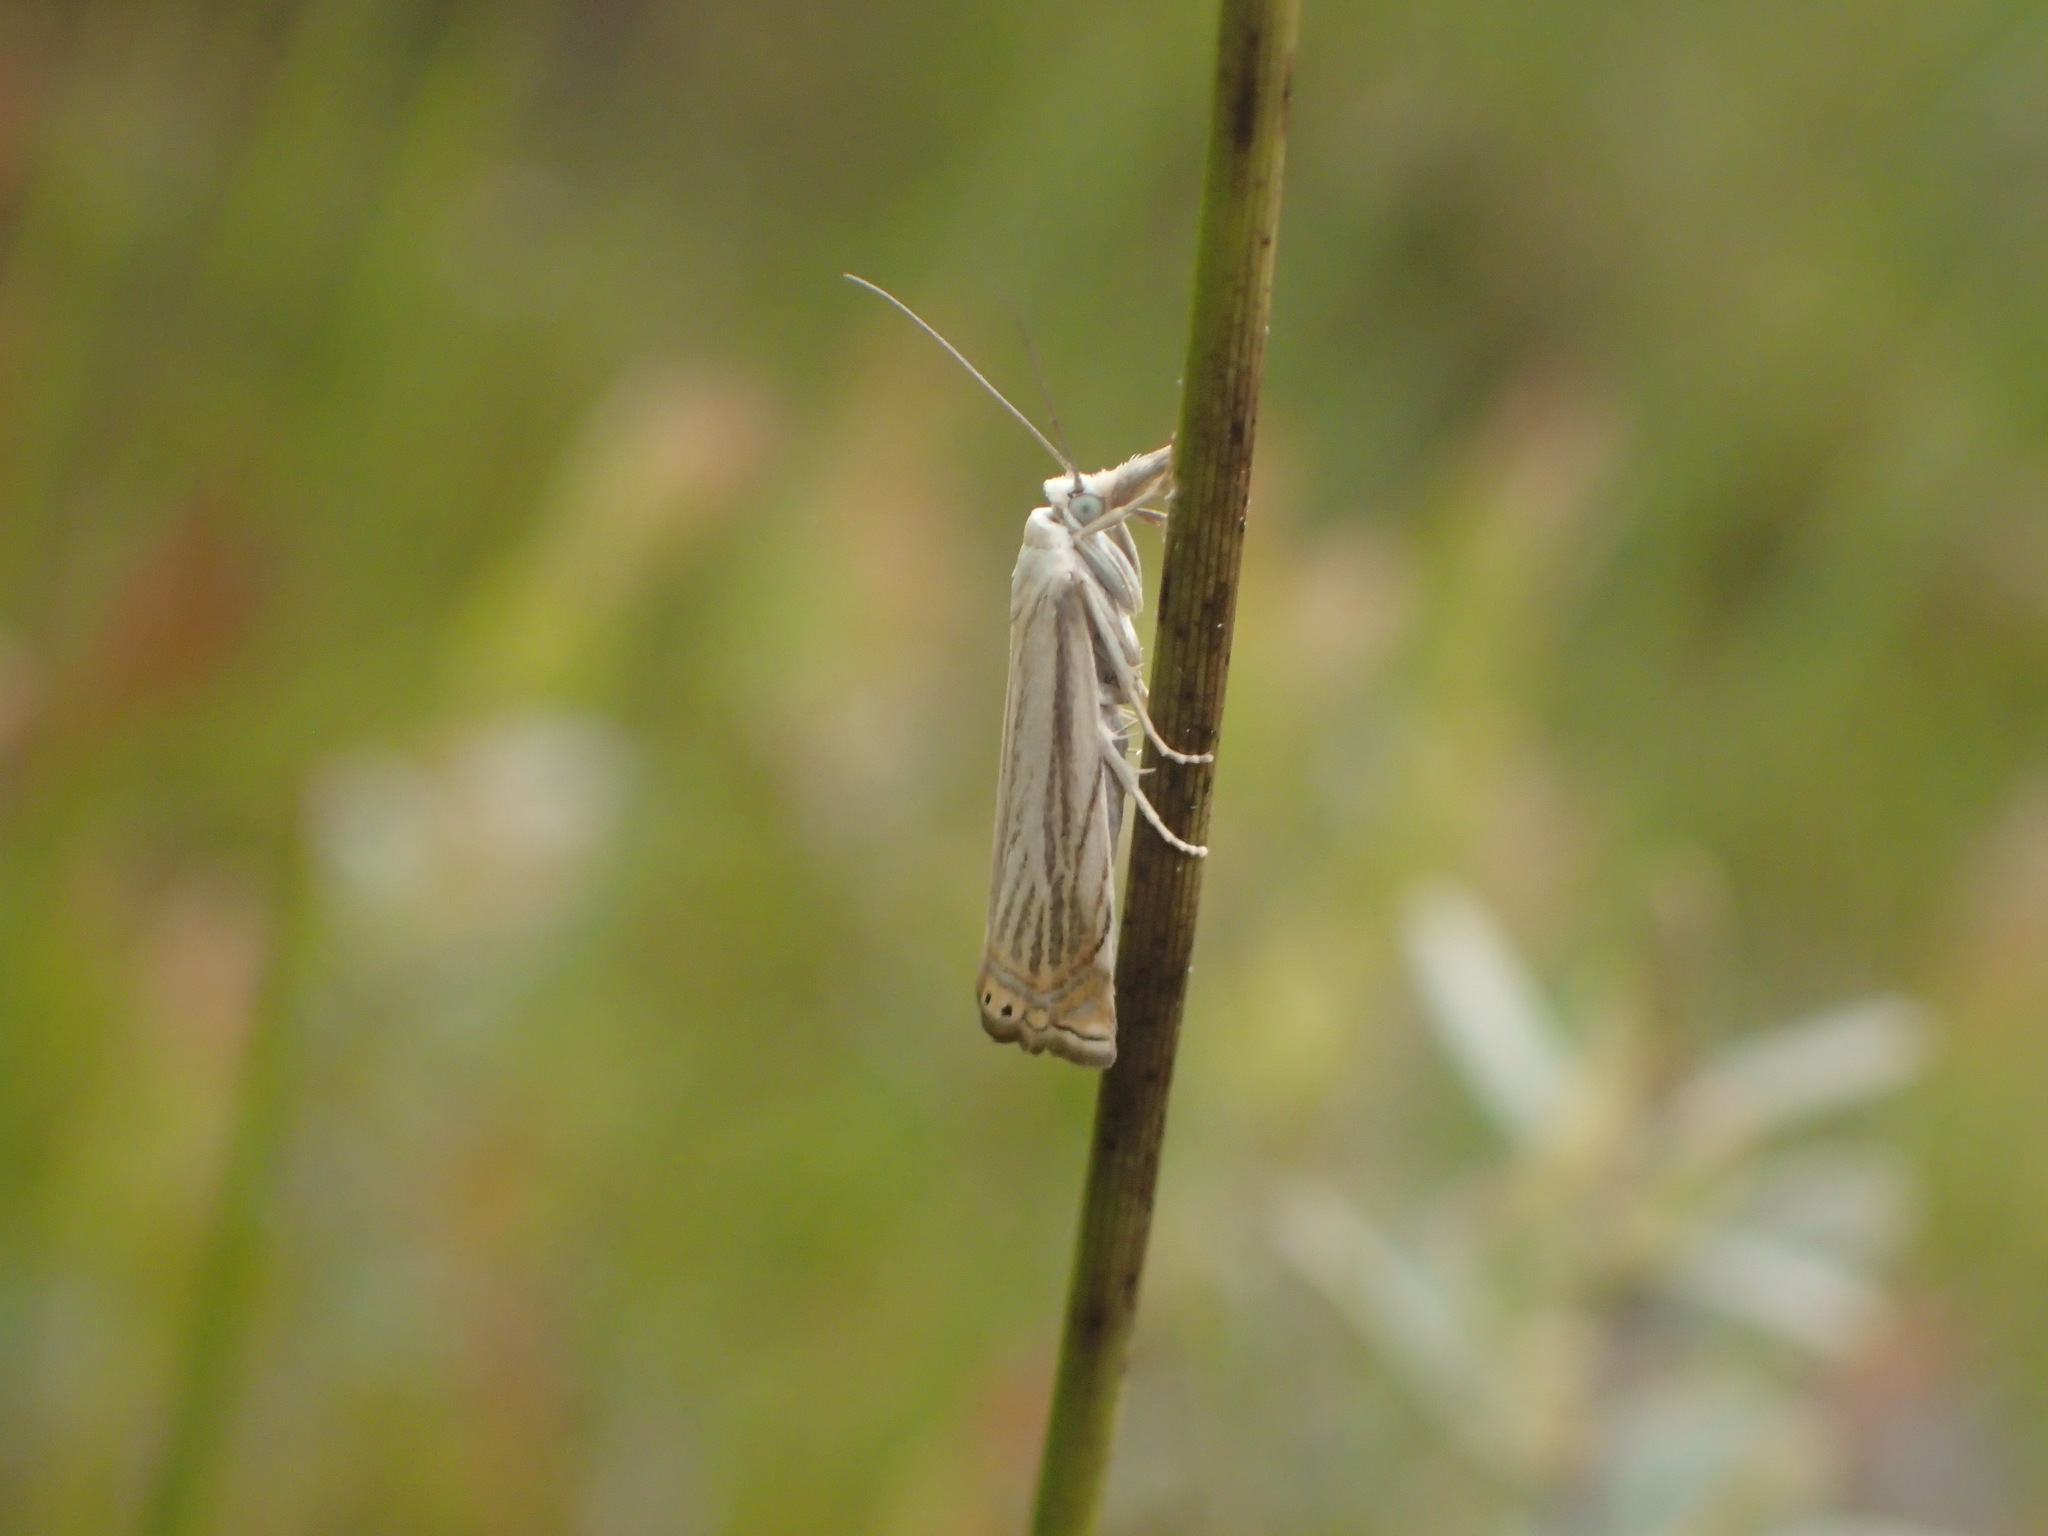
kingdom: Animalia
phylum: Arthropoda
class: Insecta
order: Lepidoptera
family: Crambidae
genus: Chrysoteuchia
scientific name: Chrysoteuchia topiarius
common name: Topiary grass-veneer
